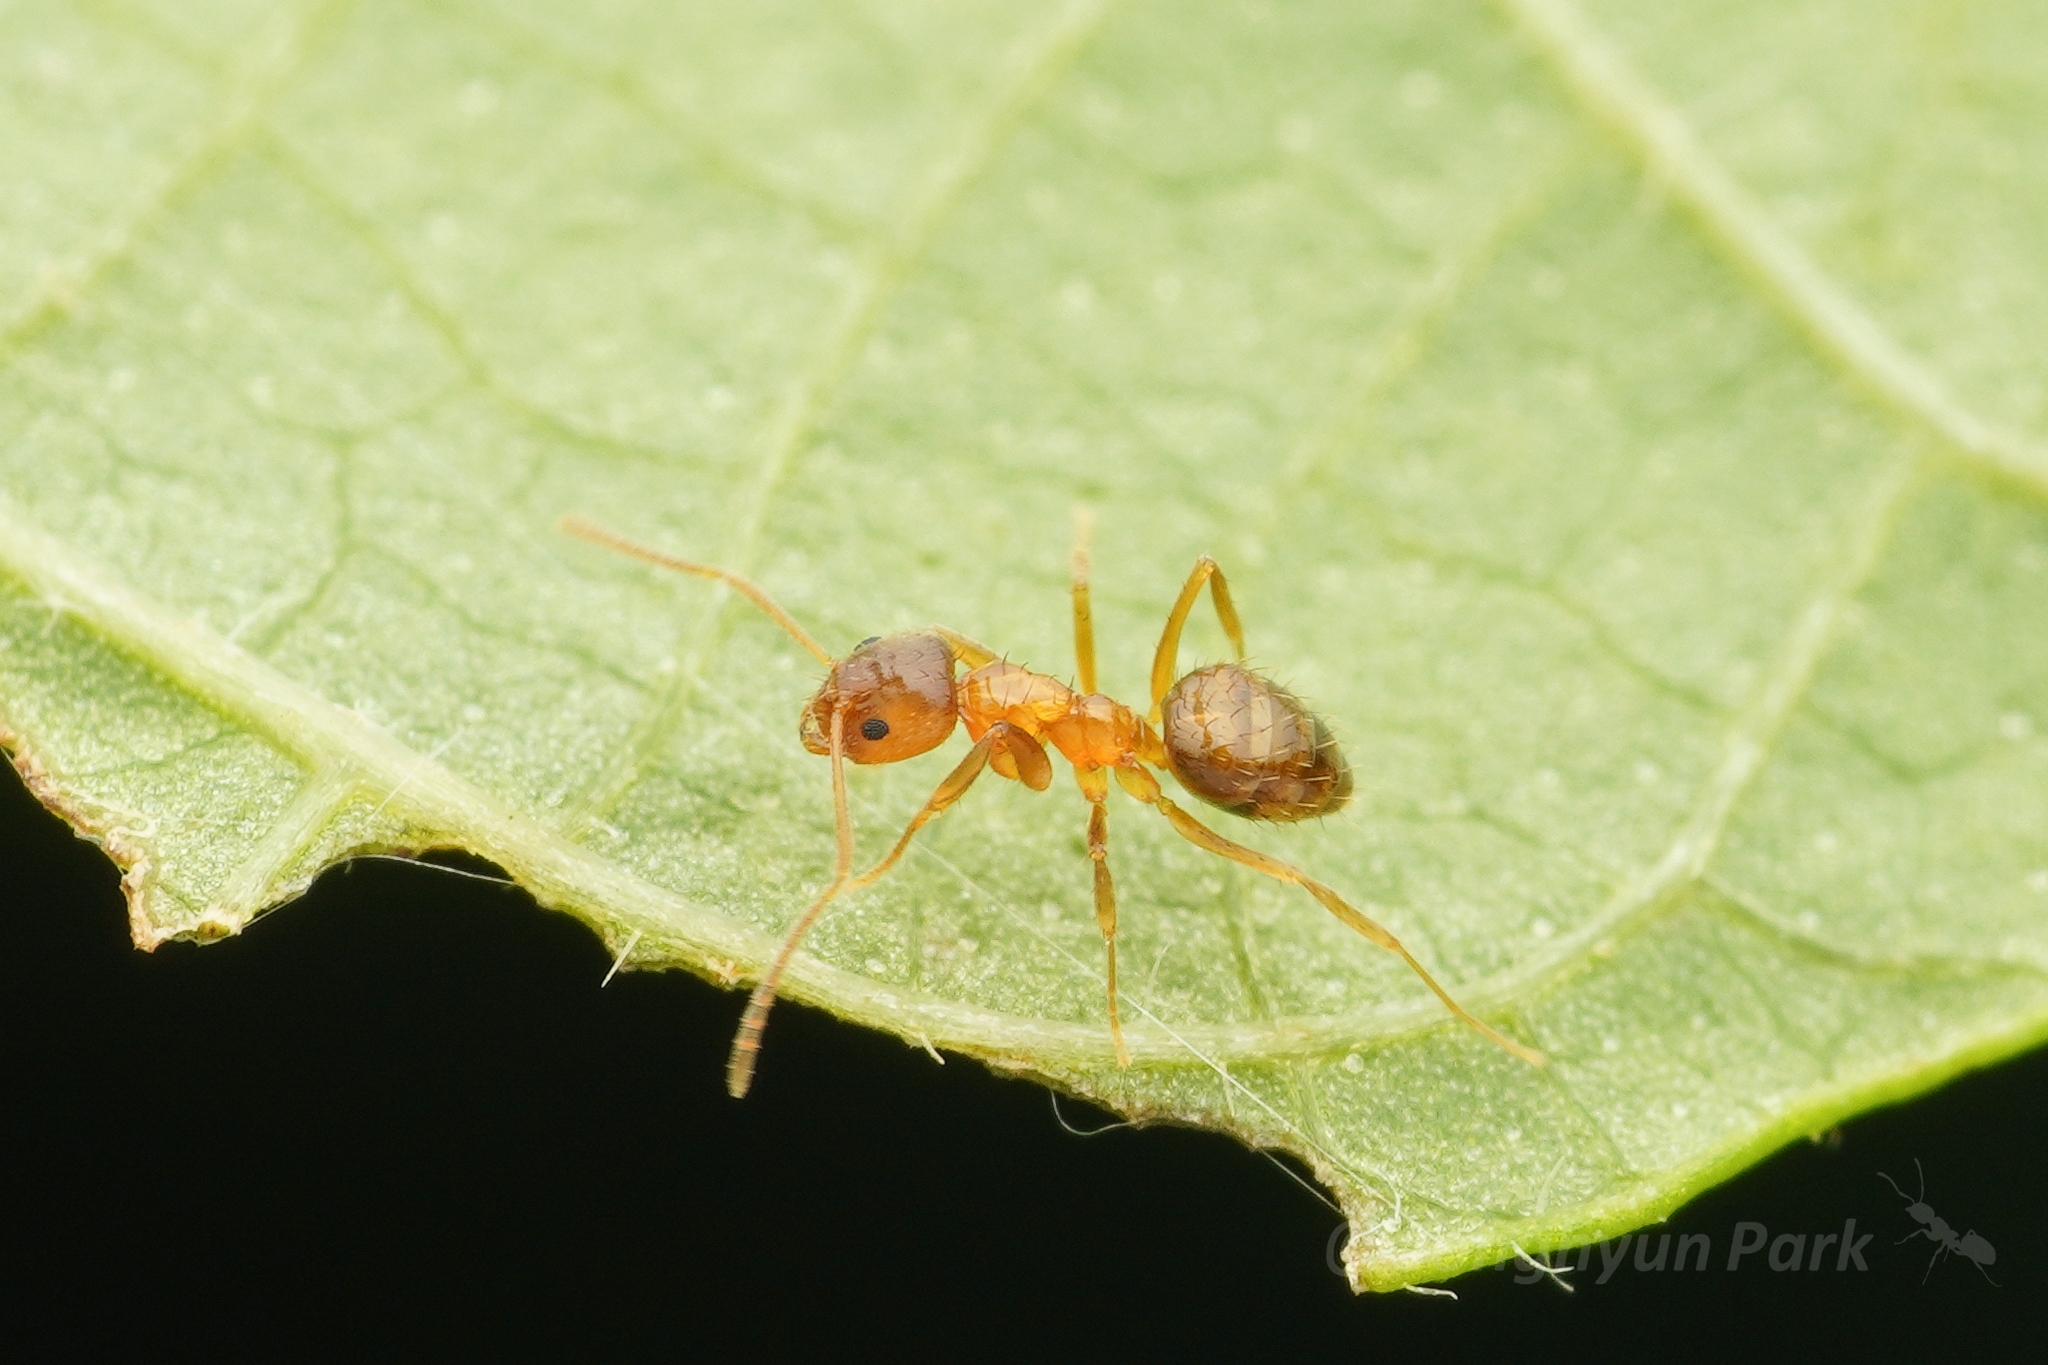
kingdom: Animalia
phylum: Arthropoda
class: Insecta
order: Hymenoptera
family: Formicidae
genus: Paratrechina
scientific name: Paratrechina flavipes
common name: Eastern asian formicine ant
